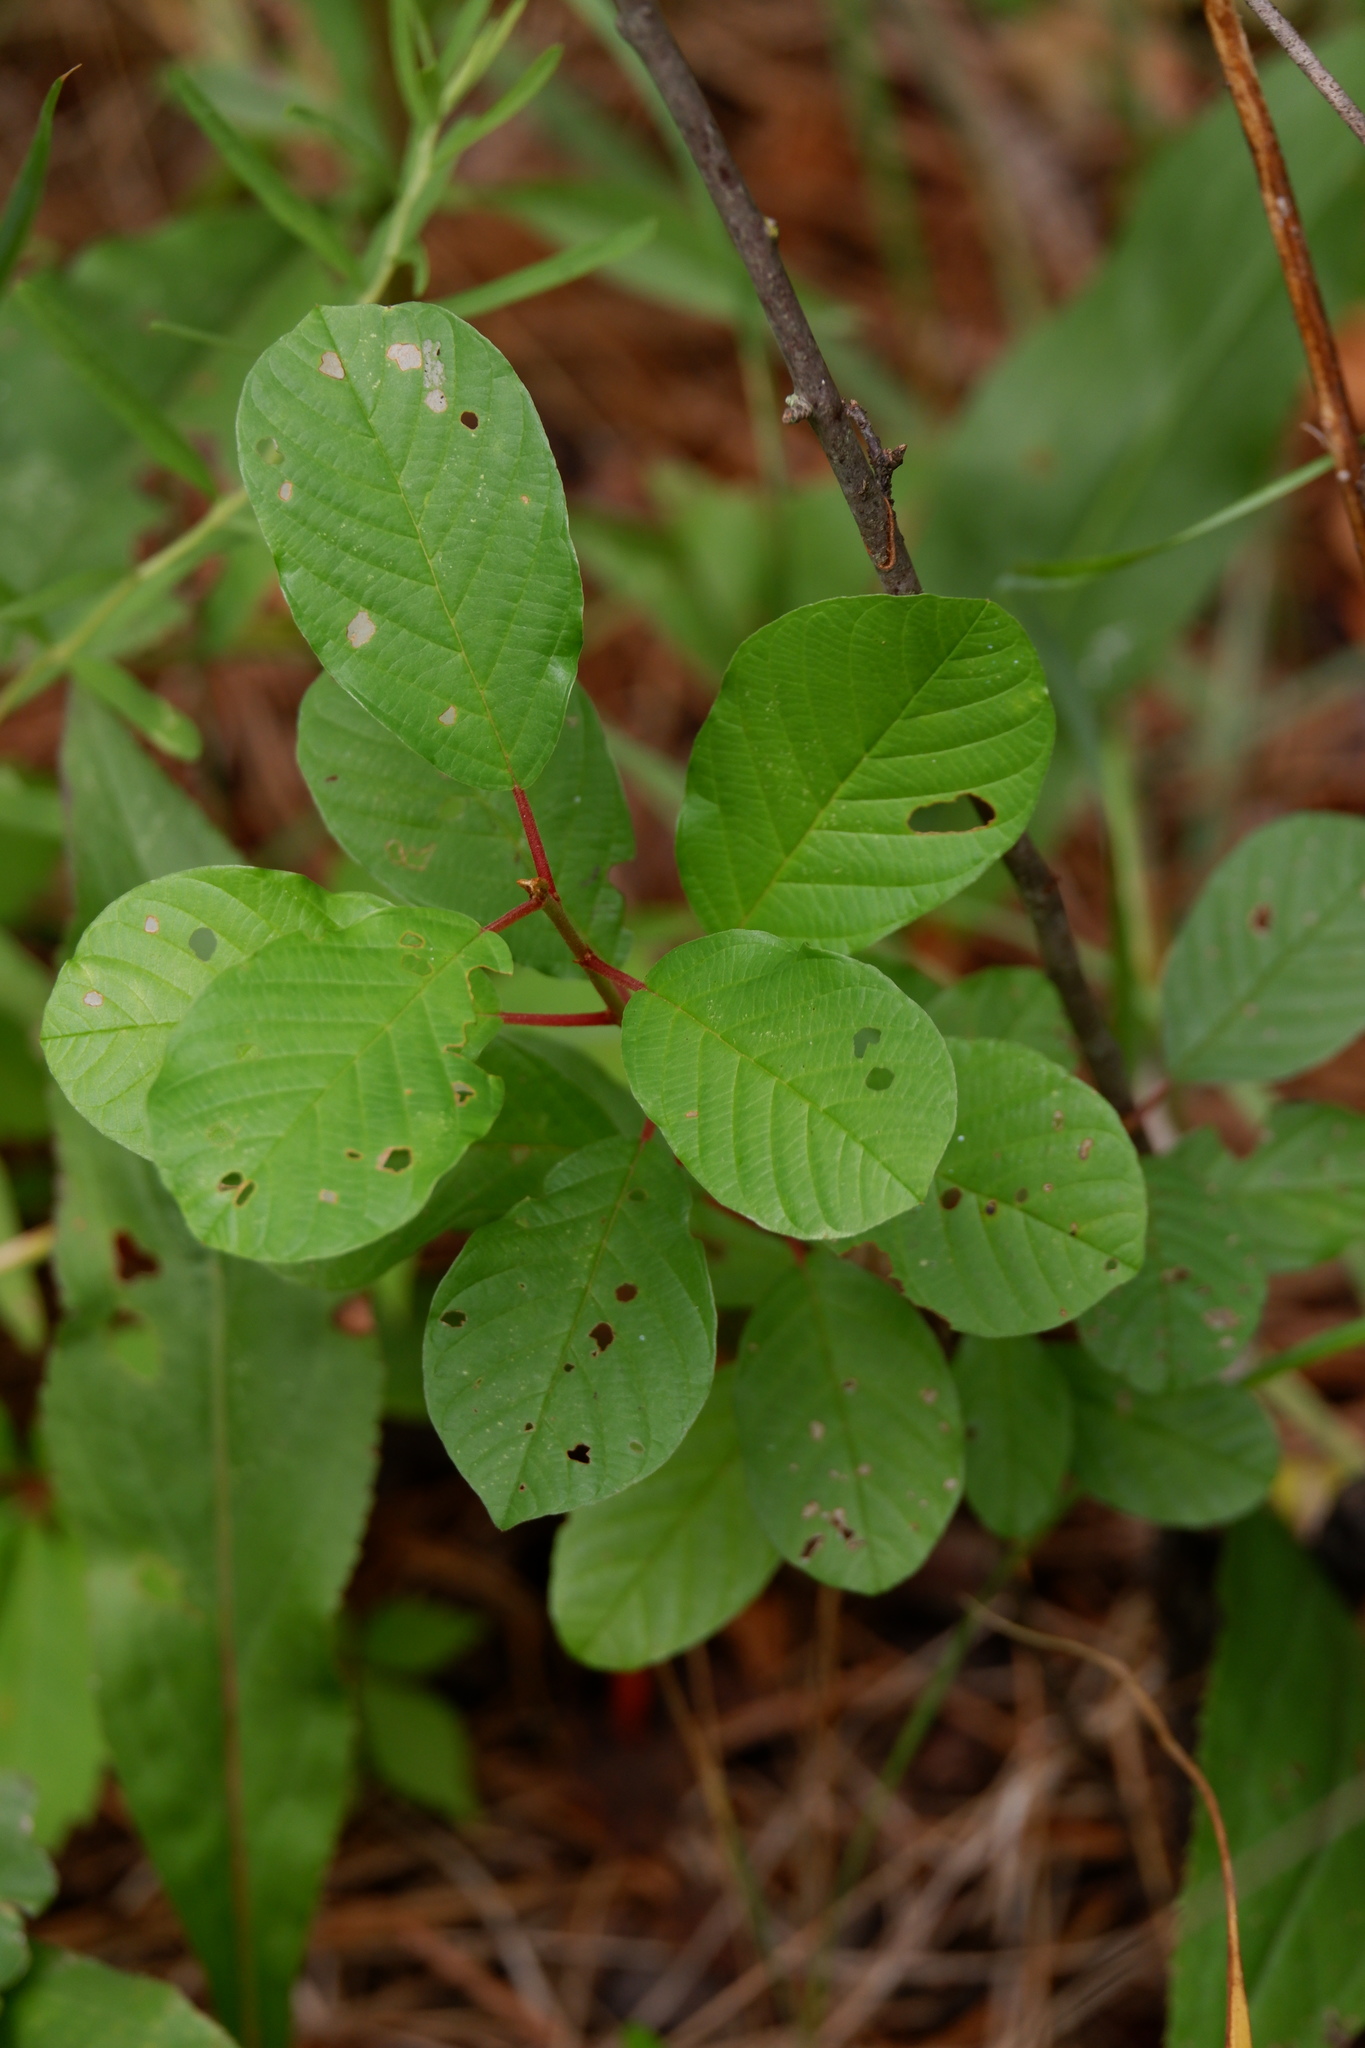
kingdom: Plantae
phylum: Tracheophyta
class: Magnoliopsida
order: Rosales
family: Rhamnaceae
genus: Frangula
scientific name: Frangula alnus
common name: Alder buckthorn
